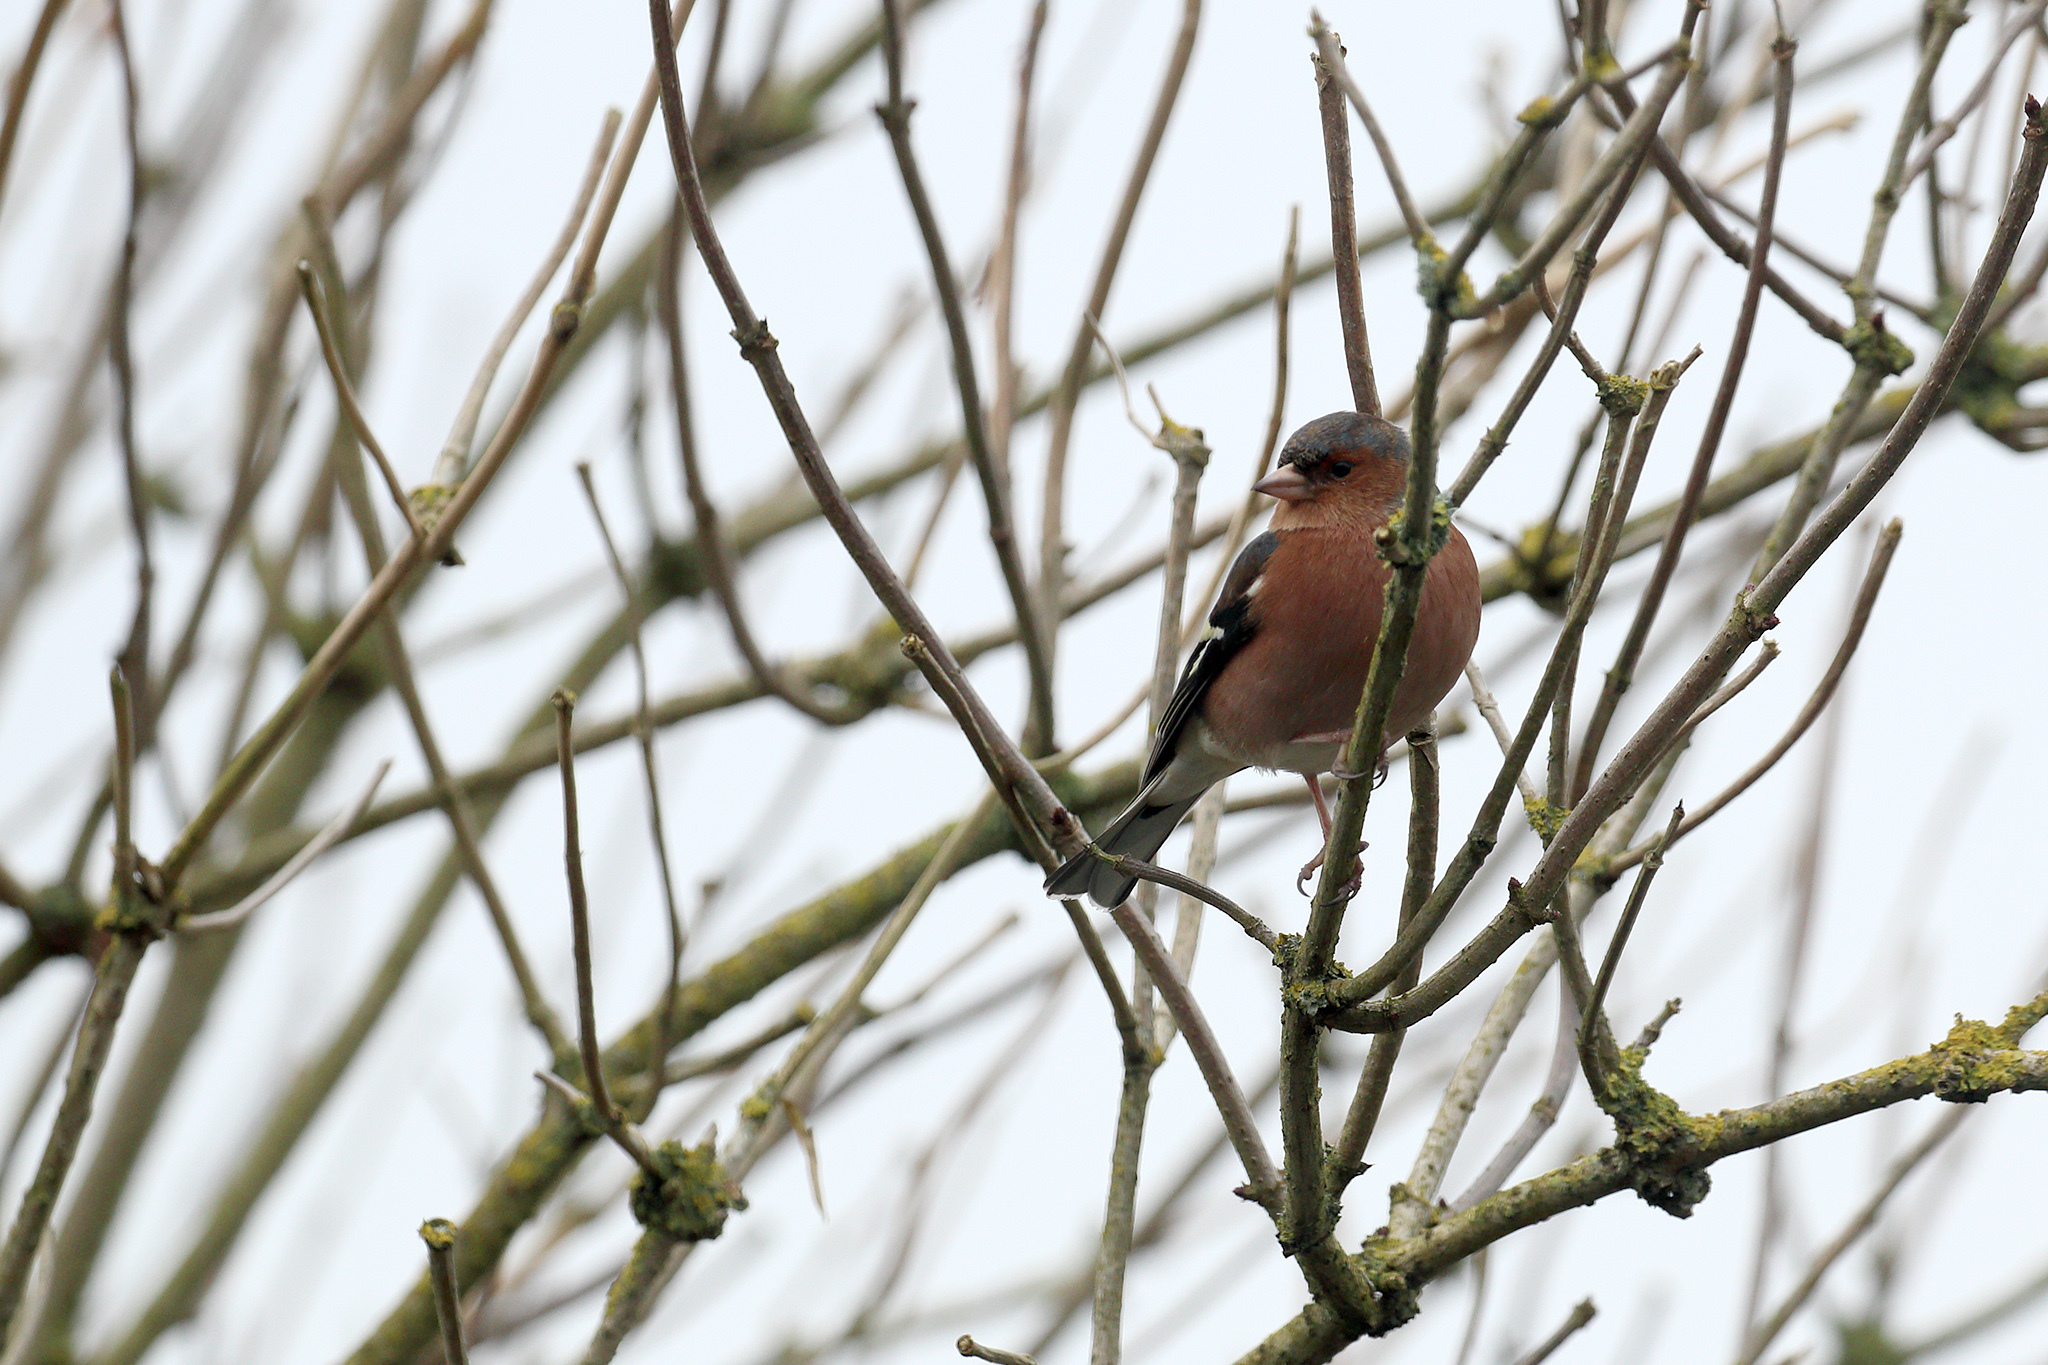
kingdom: Animalia
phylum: Chordata
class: Aves
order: Passeriformes
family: Fringillidae
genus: Fringilla
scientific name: Fringilla coelebs
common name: Common chaffinch
